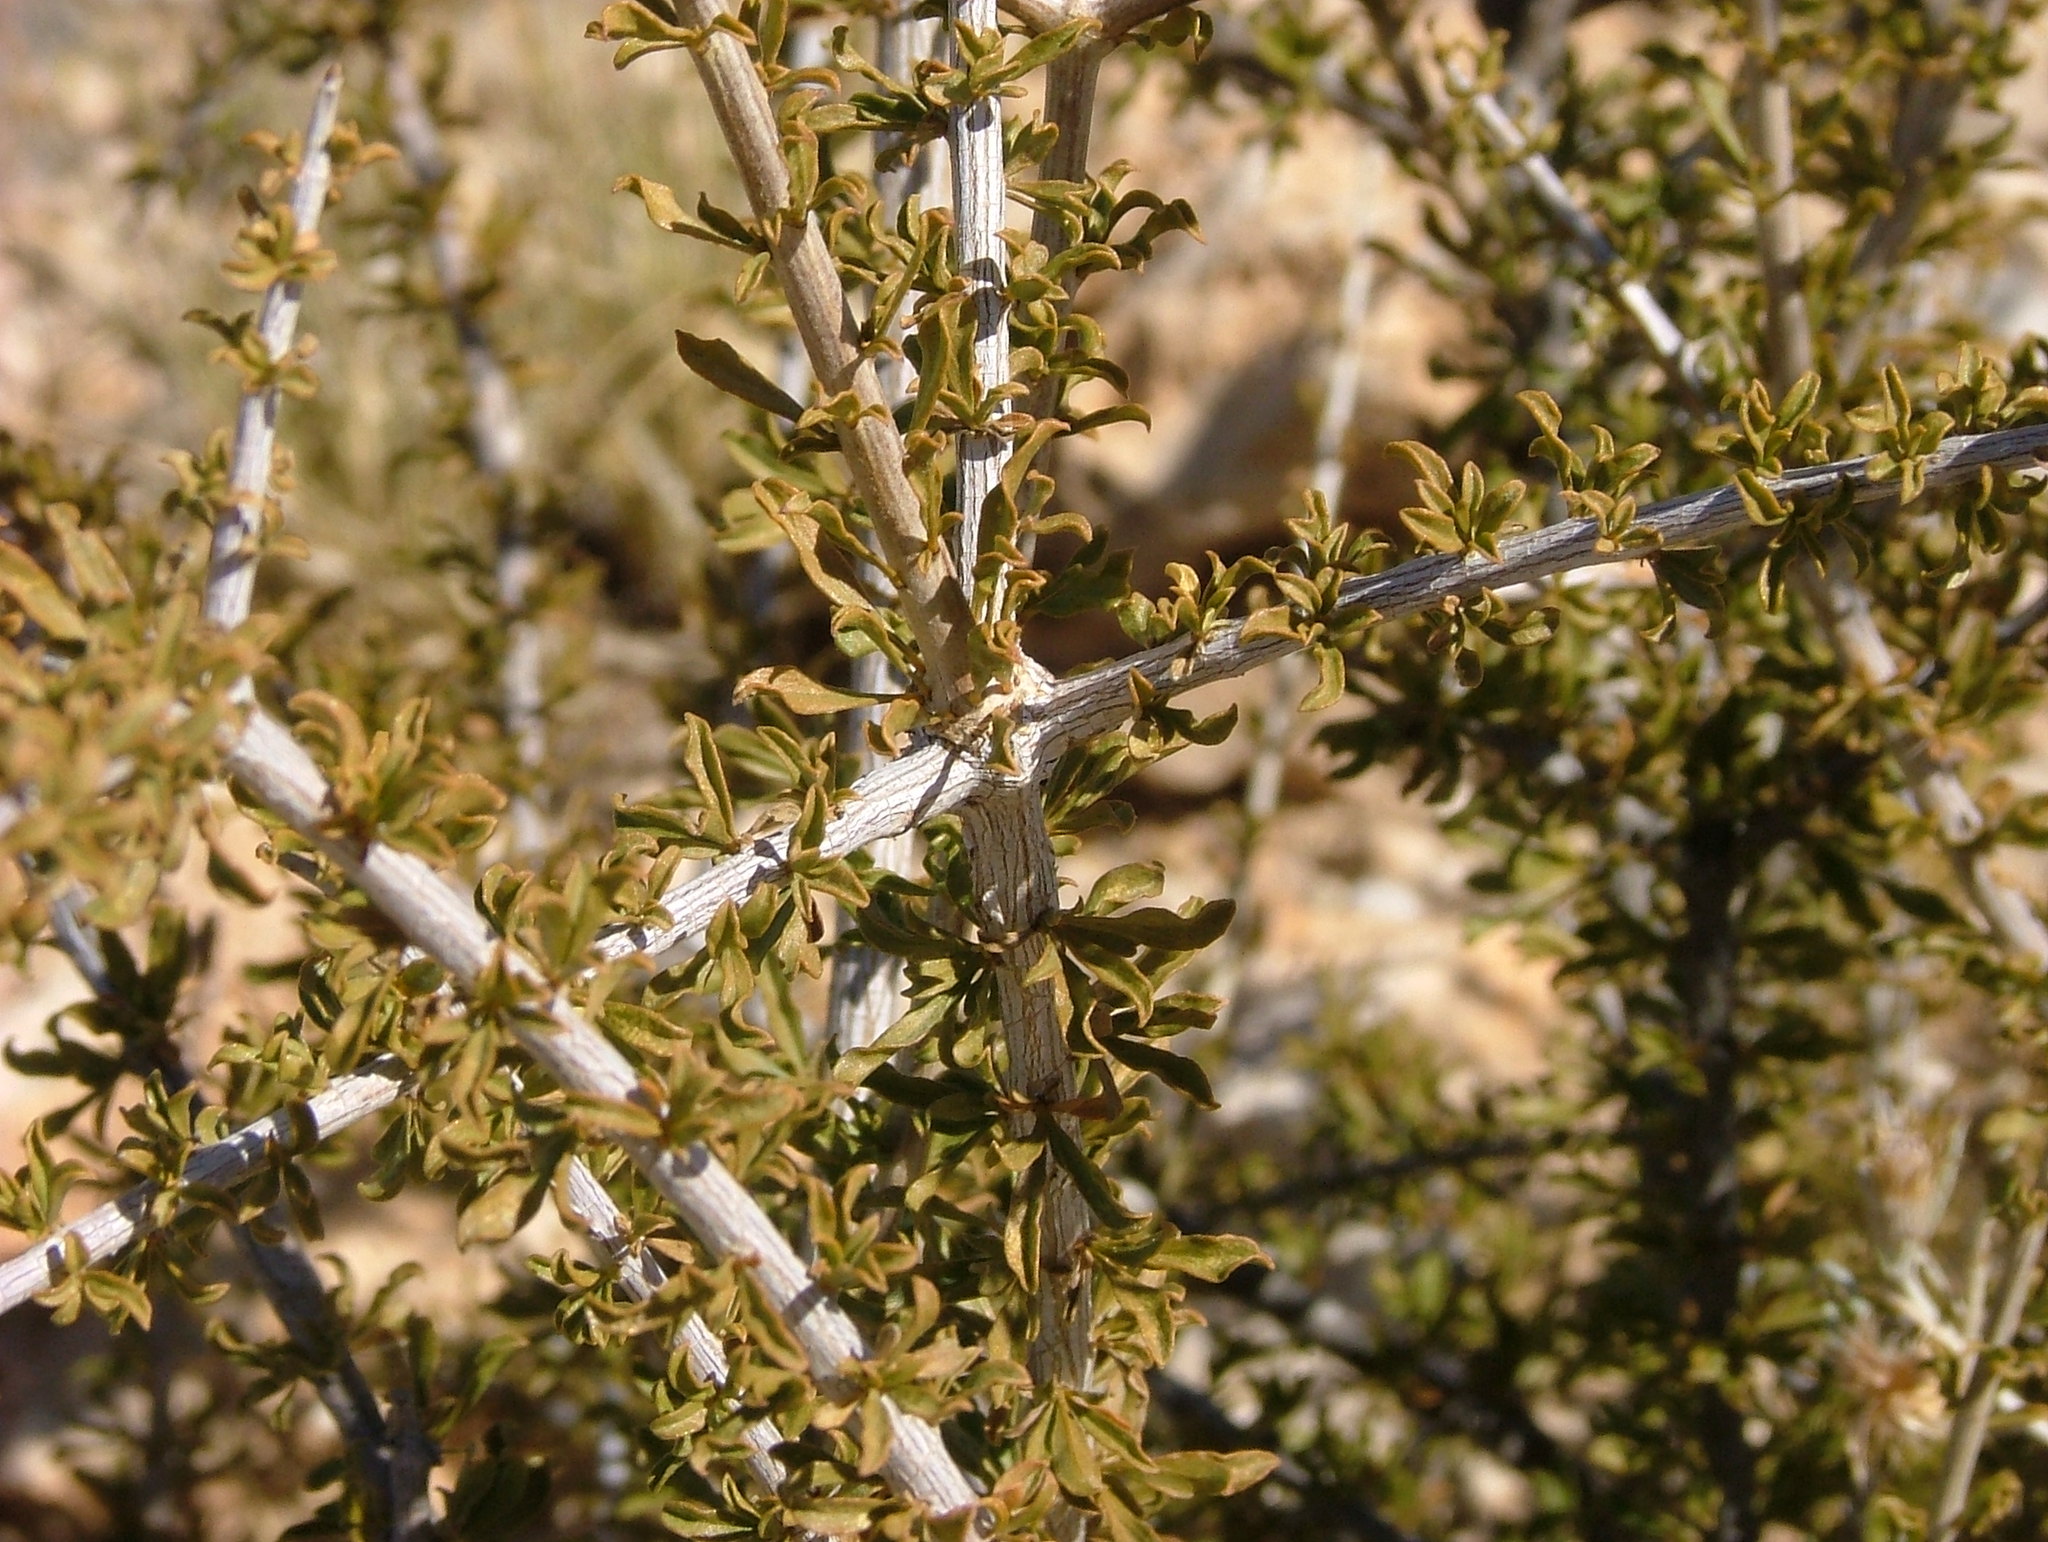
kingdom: Plantae
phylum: Tracheophyta
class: Magnoliopsida
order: Lamiales
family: Bignoniaceae
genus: Rhigozum
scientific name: Rhigozum trichotomum
